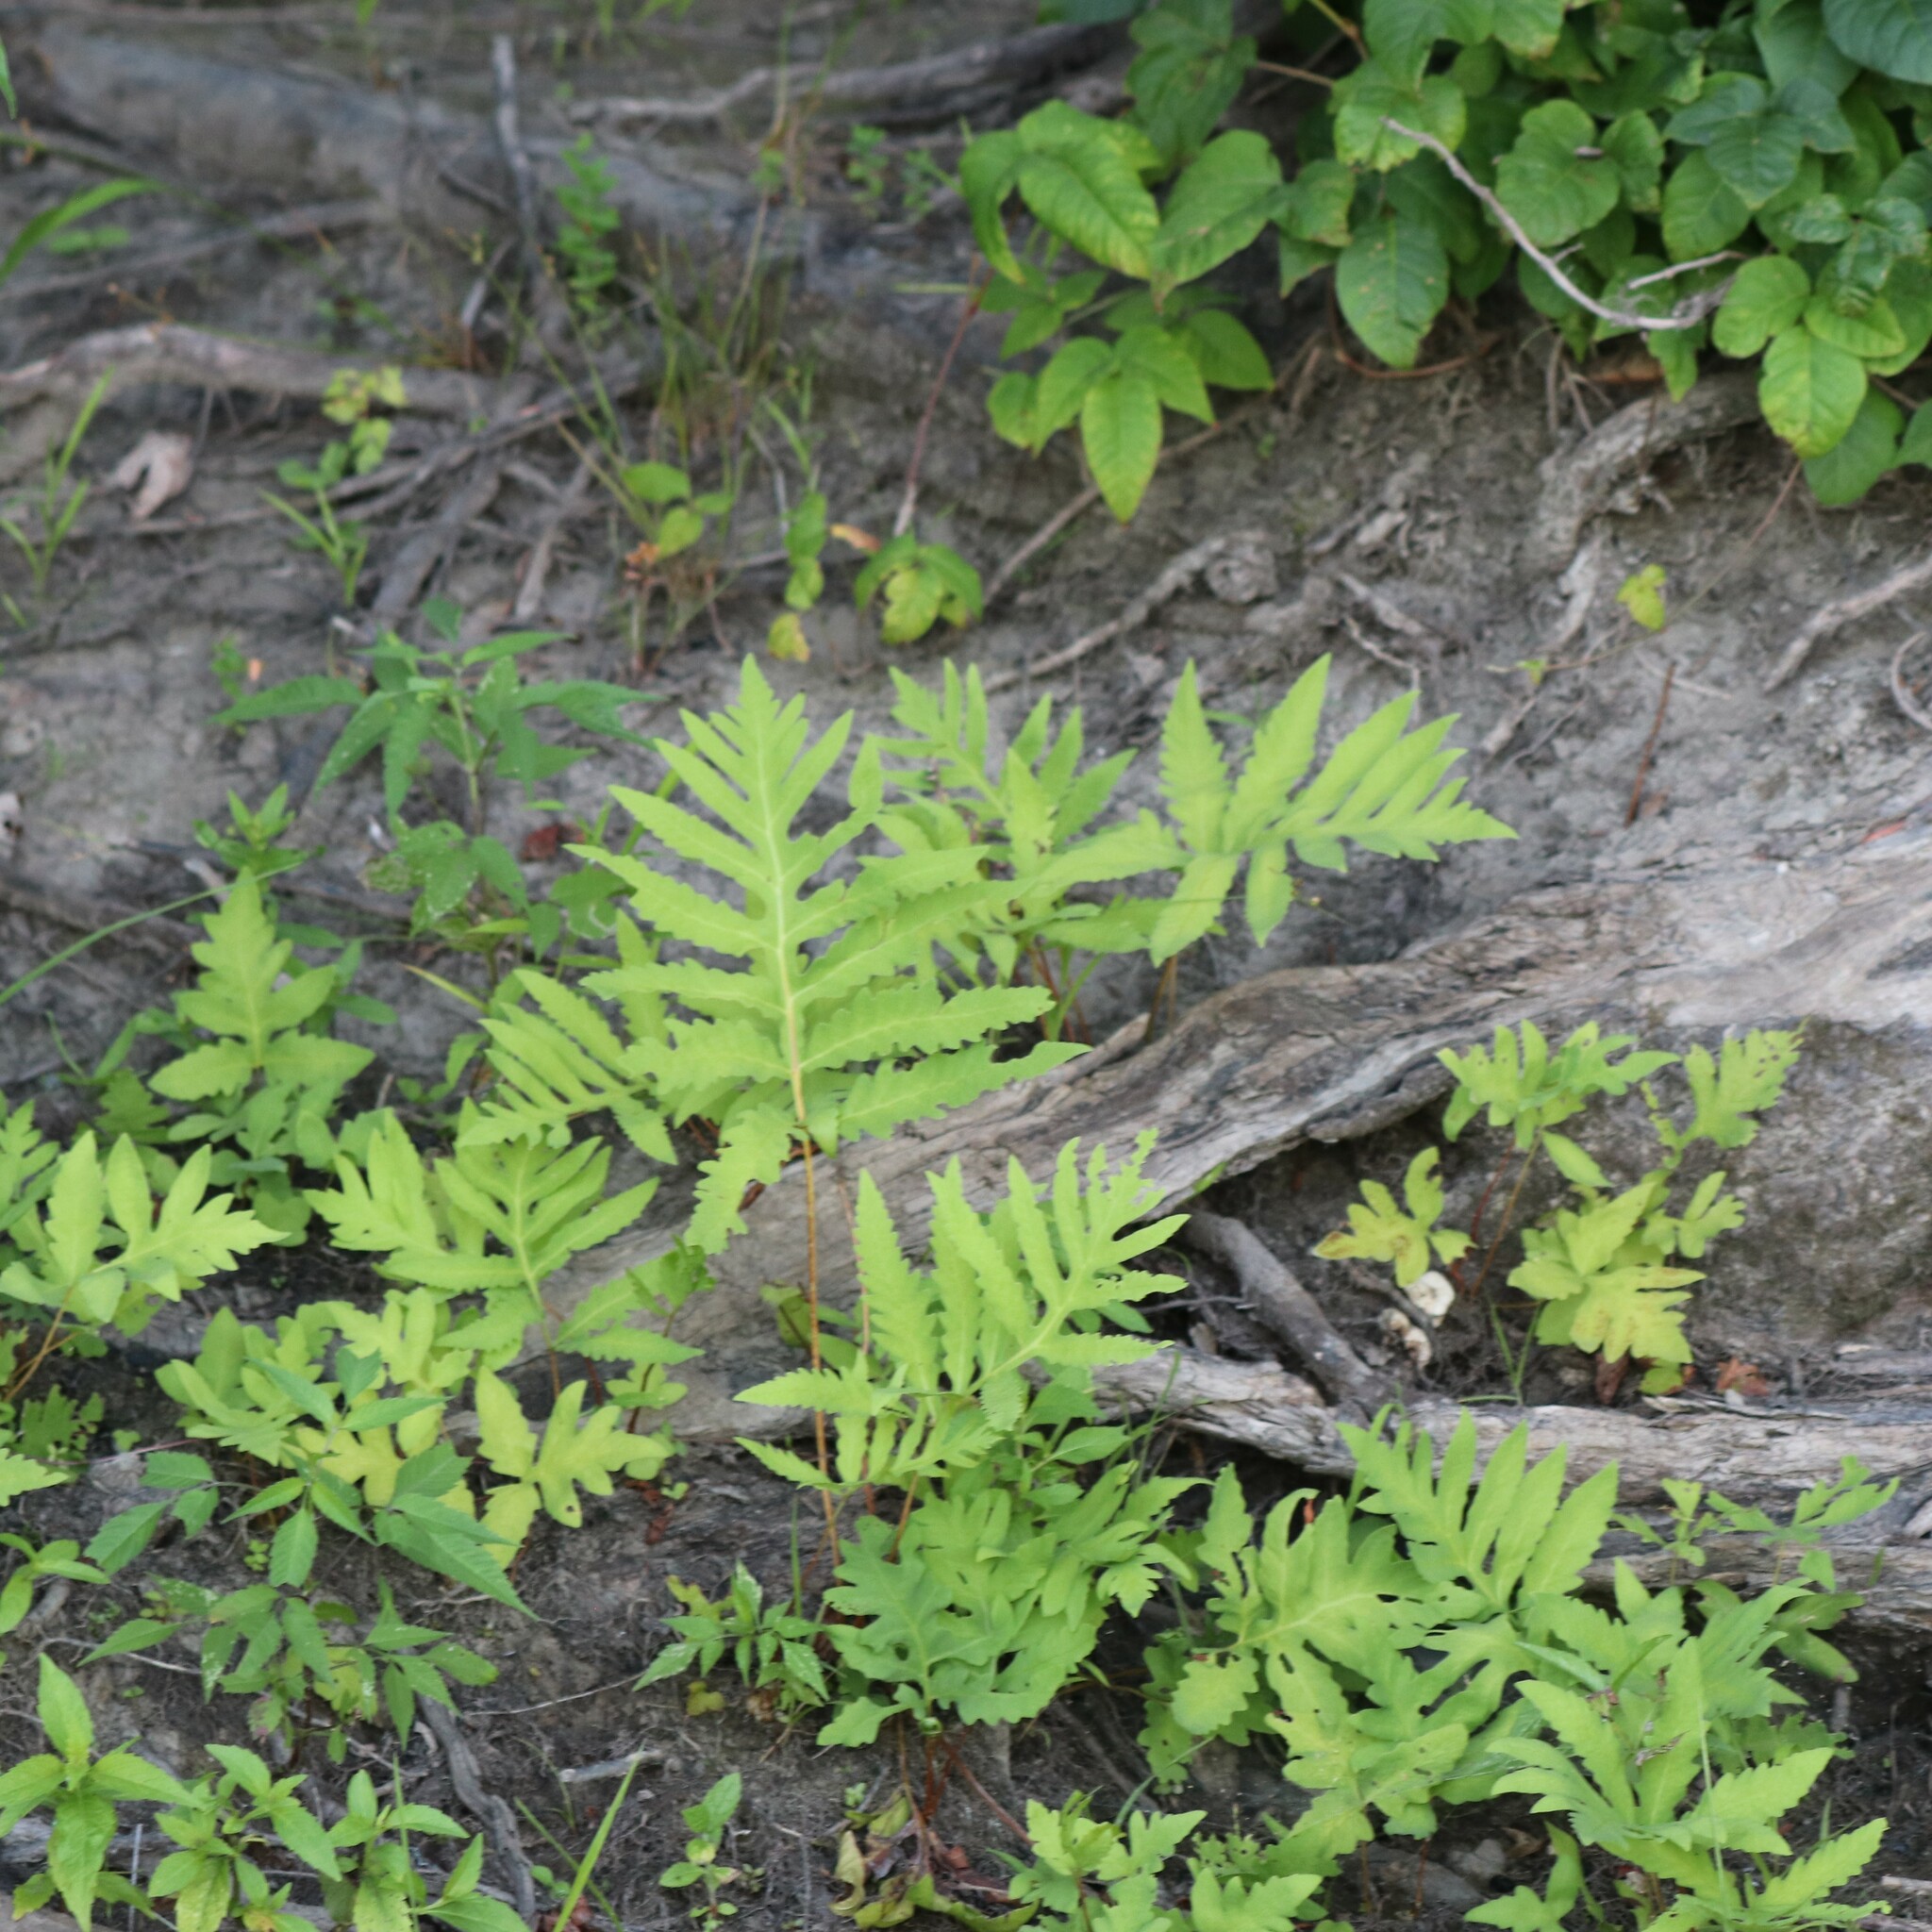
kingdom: Plantae
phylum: Tracheophyta
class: Polypodiopsida
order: Polypodiales
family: Onocleaceae
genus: Onoclea
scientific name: Onoclea sensibilis
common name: Sensitive fern
